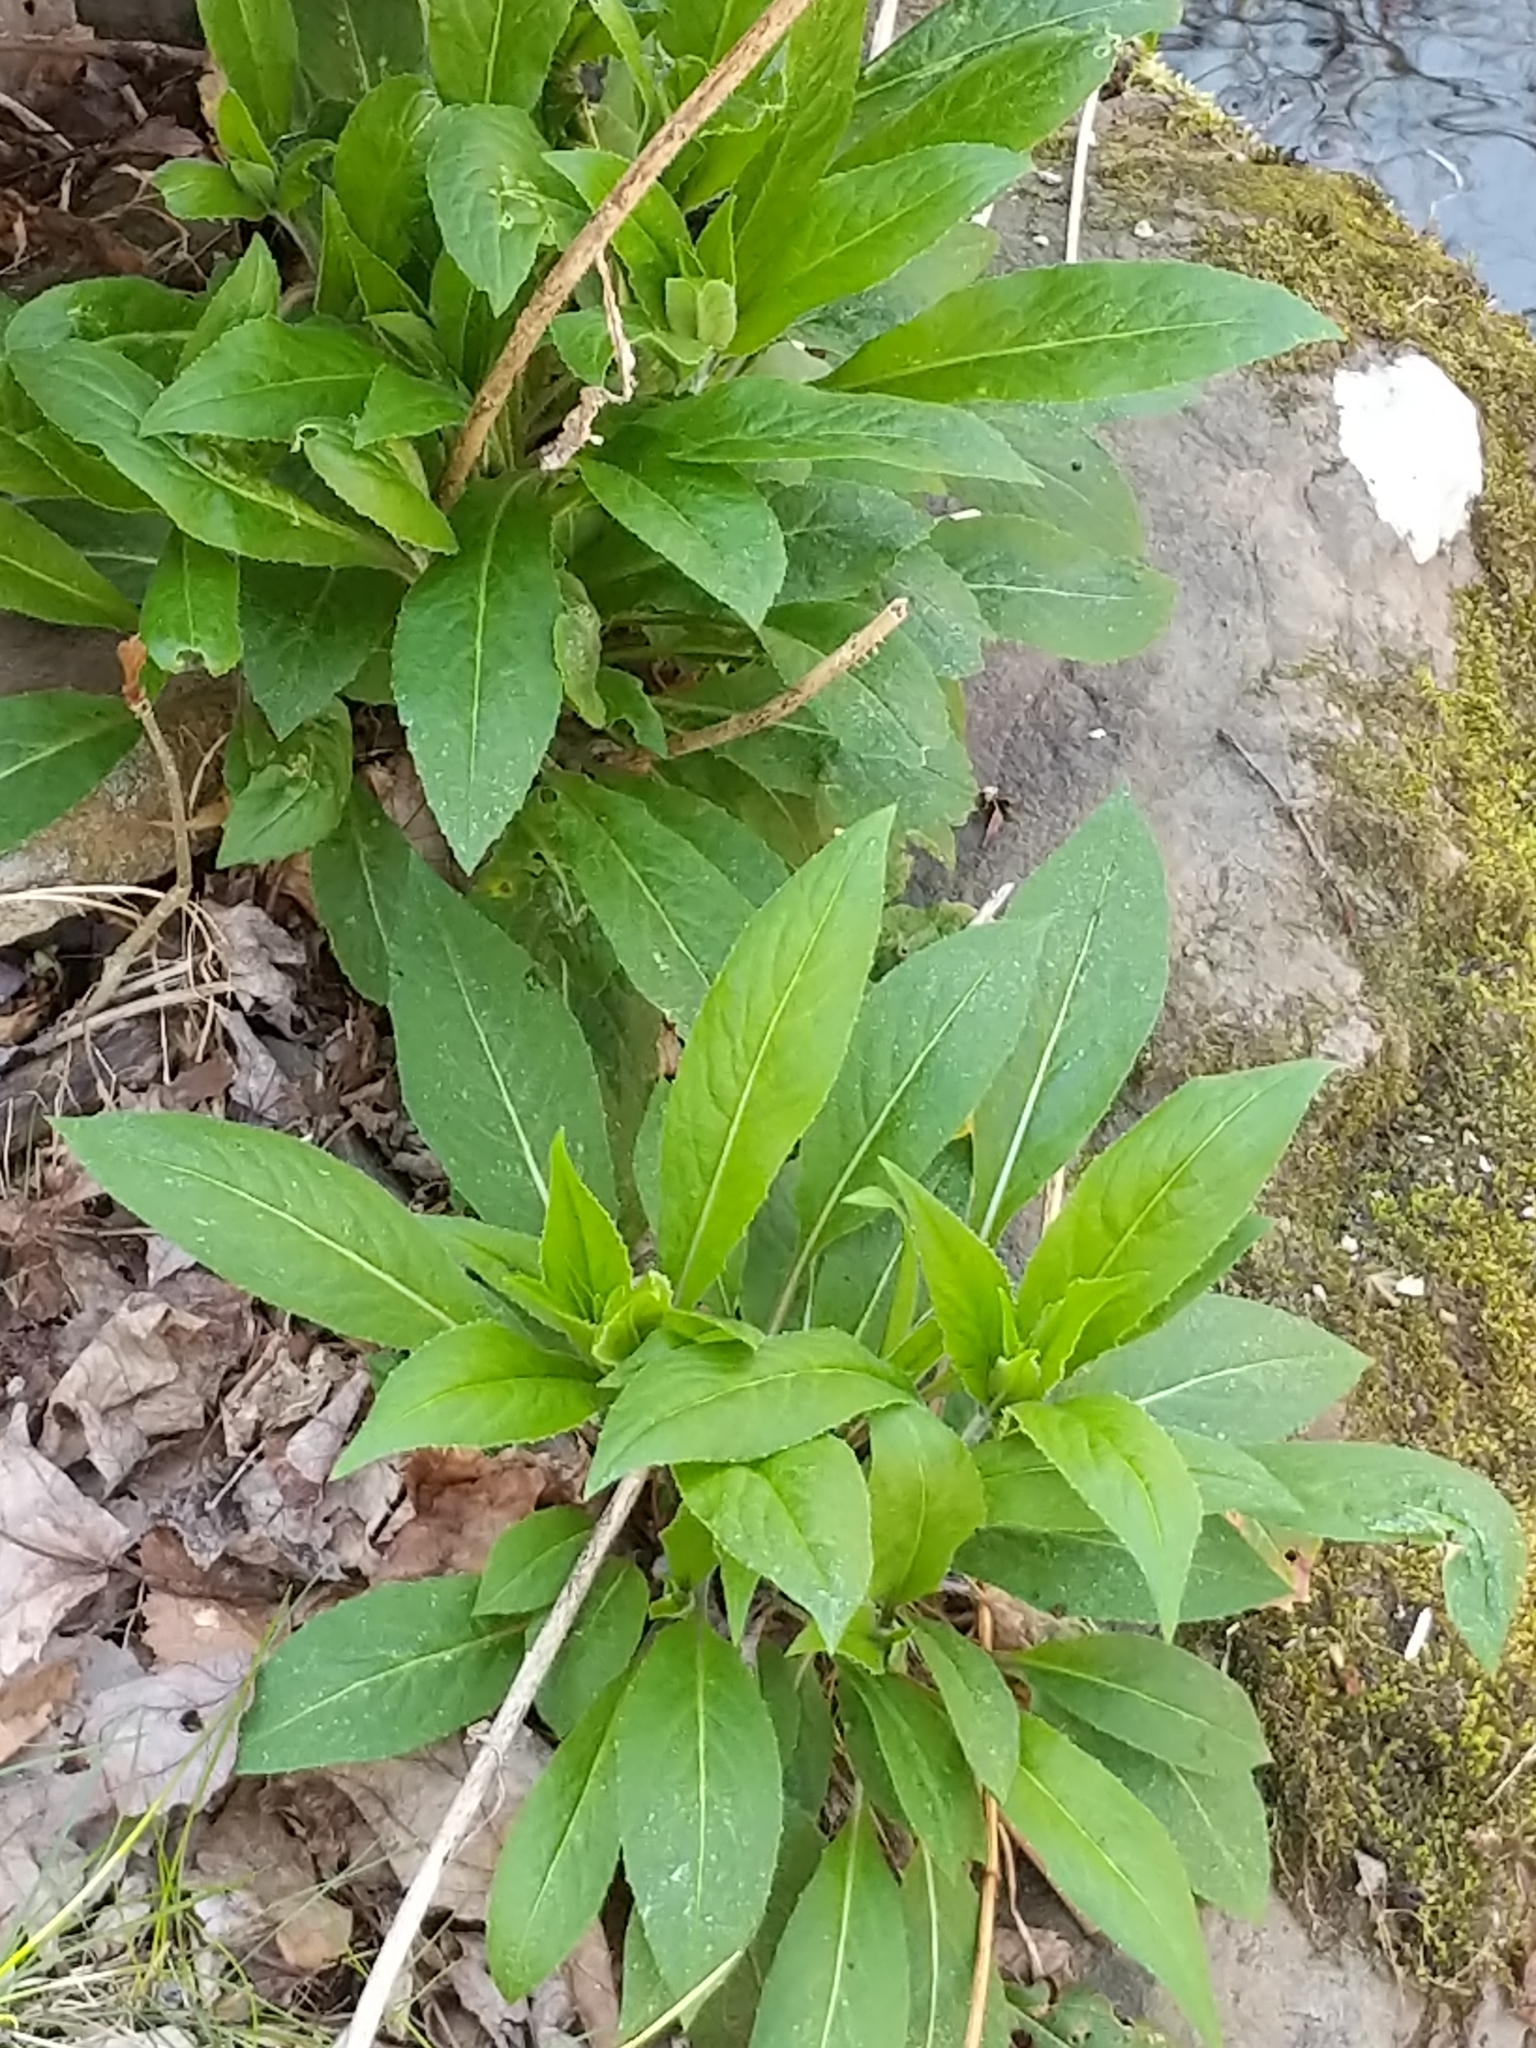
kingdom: Plantae
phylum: Tracheophyta
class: Magnoliopsida
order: Brassicales
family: Brassicaceae
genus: Hesperis
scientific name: Hesperis matronalis
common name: Dame's-violet
